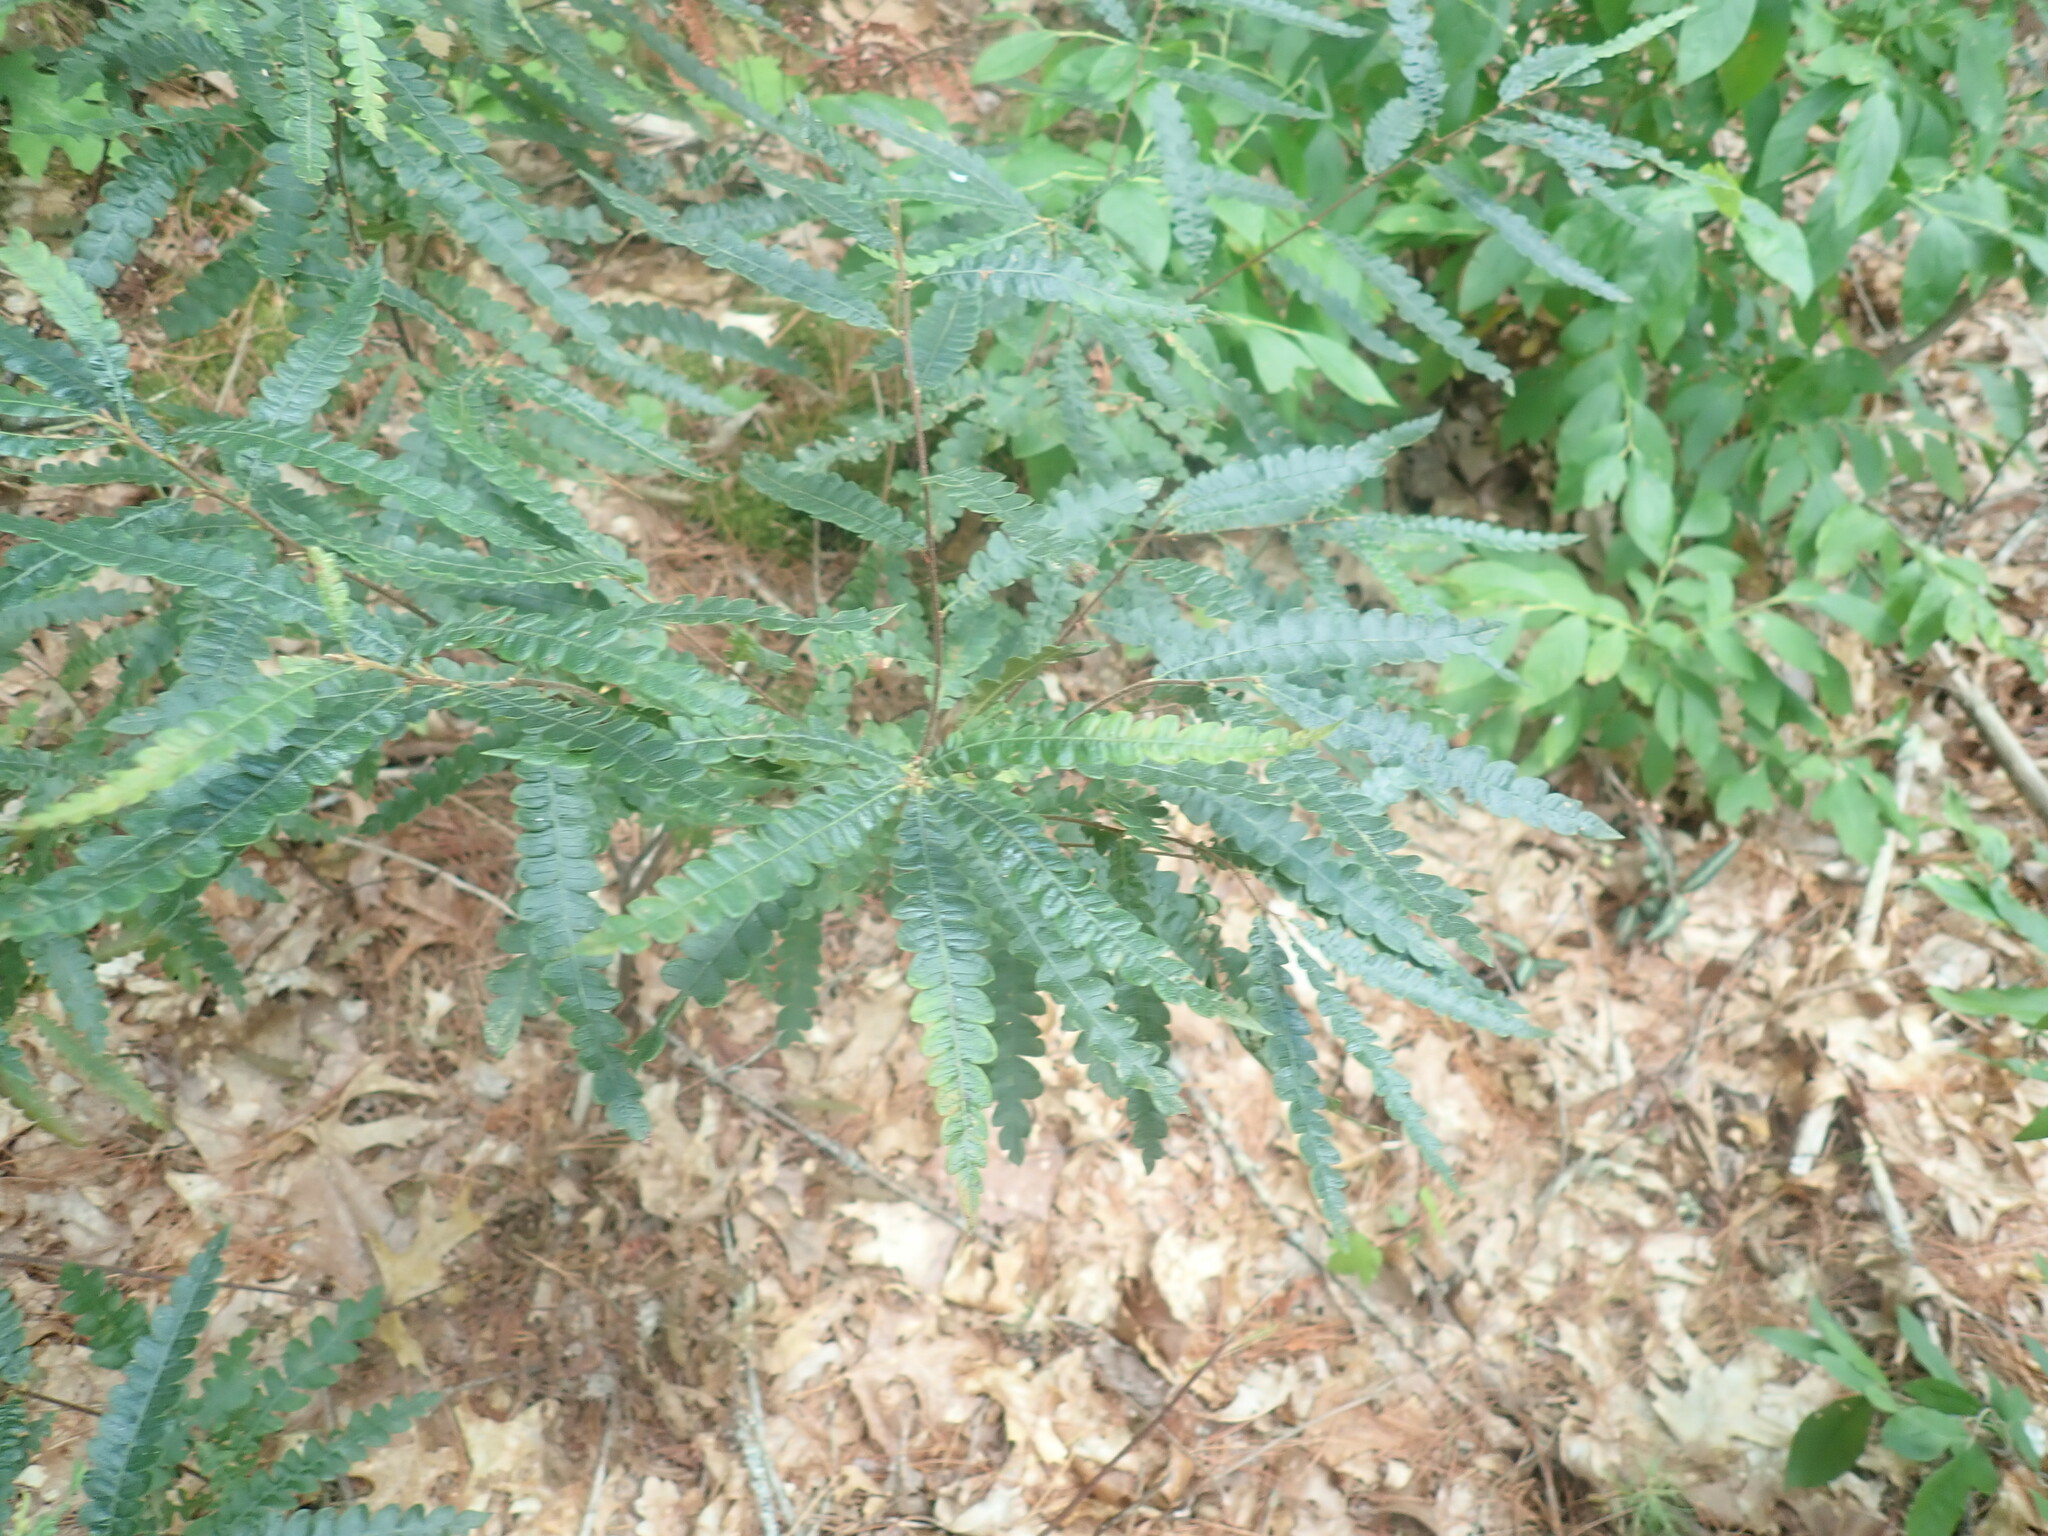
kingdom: Plantae
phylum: Tracheophyta
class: Magnoliopsida
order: Fagales
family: Myricaceae
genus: Comptonia
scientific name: Comptonia peregrina
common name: Sweet-fern
